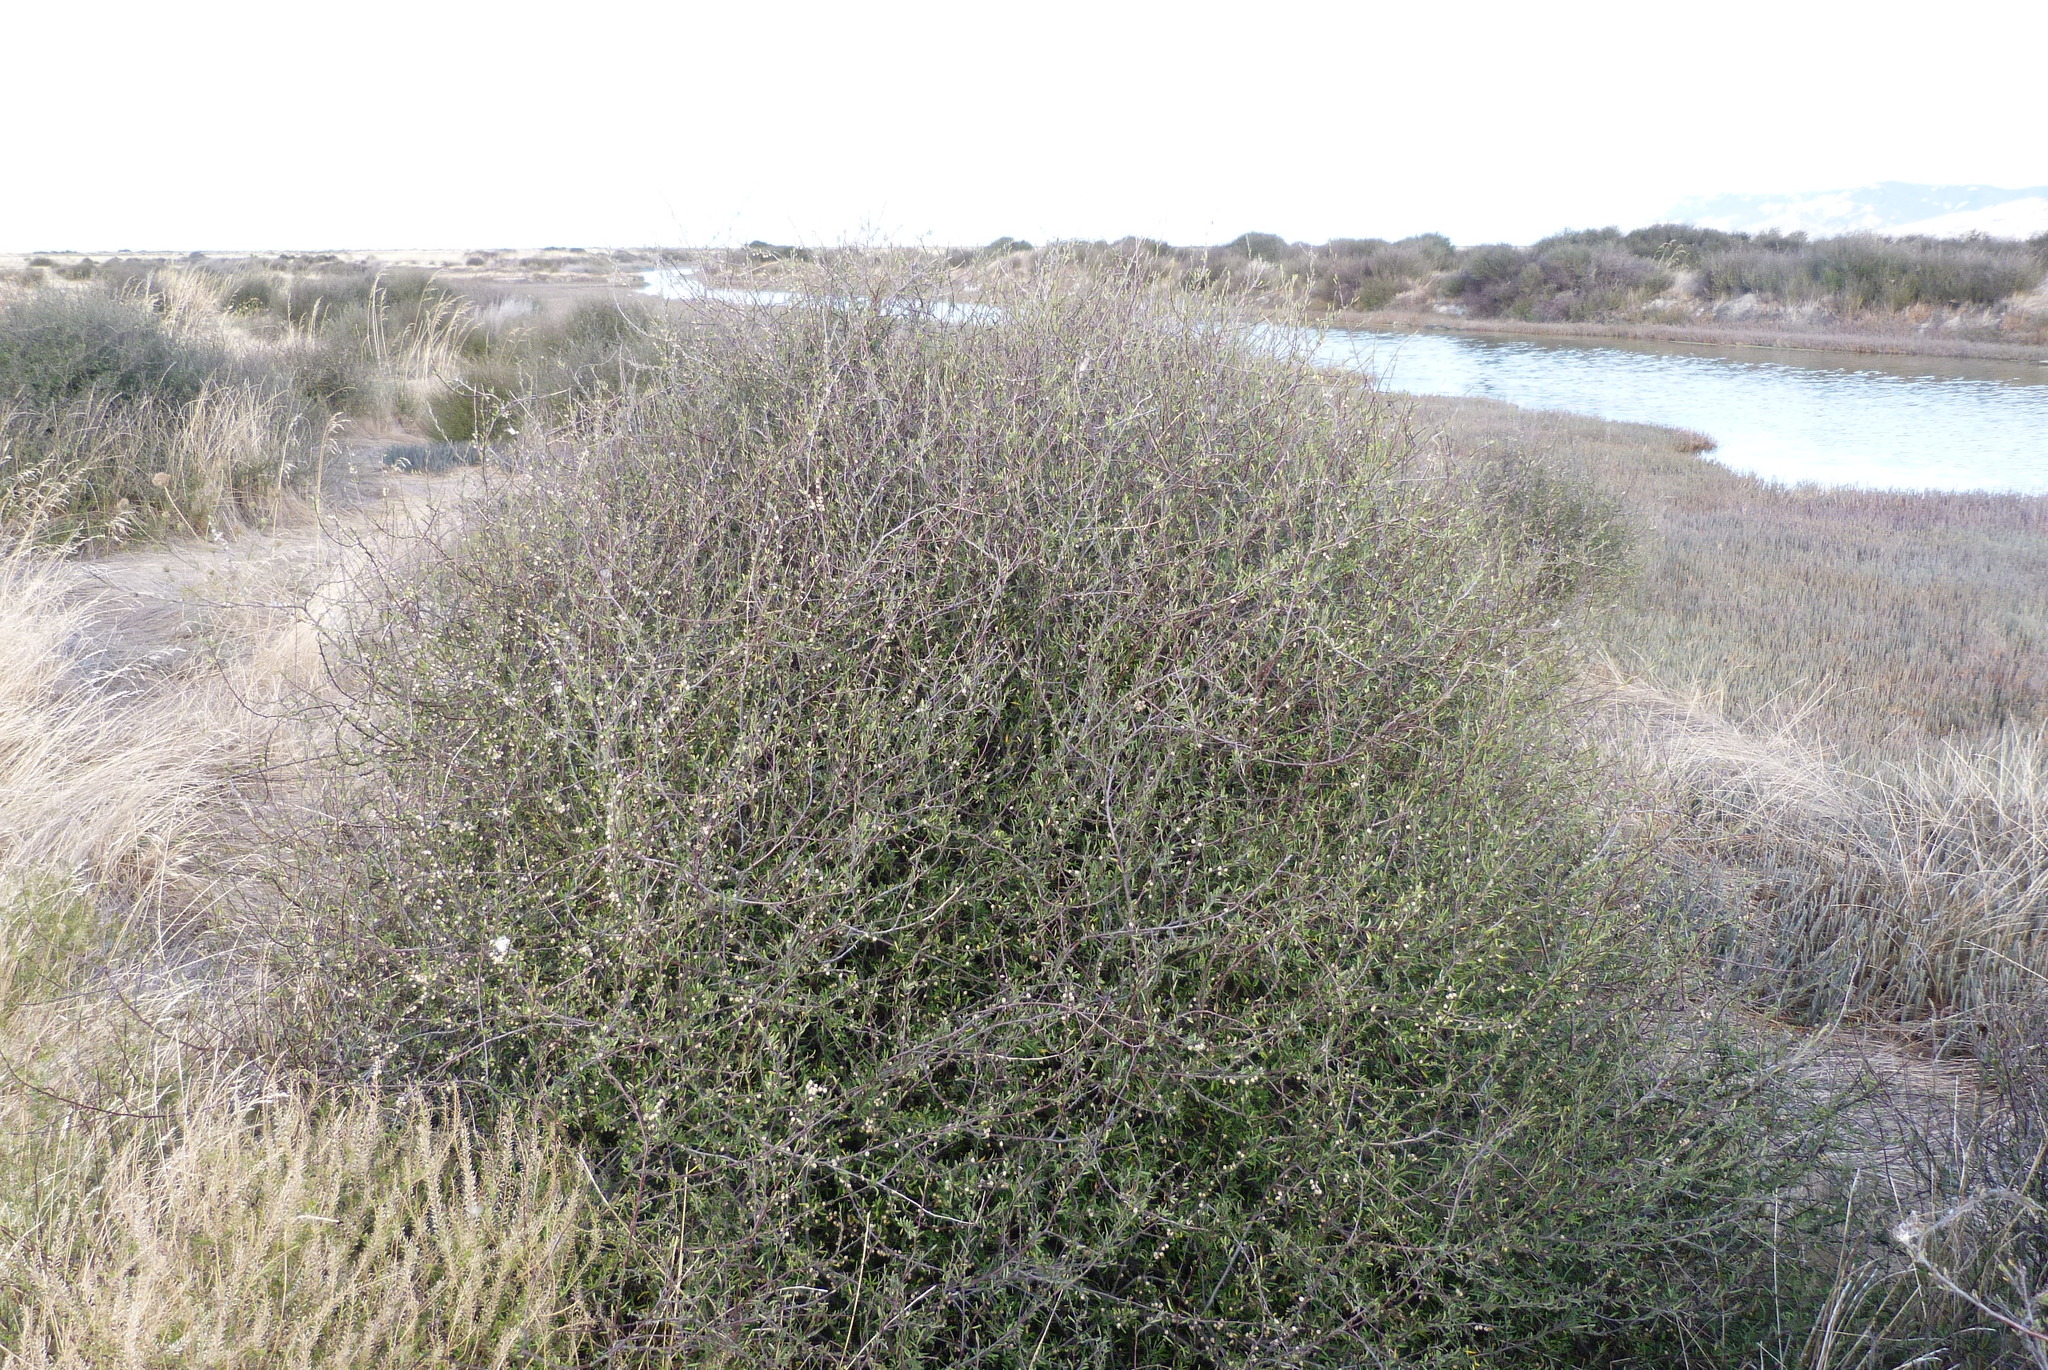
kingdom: Plantae
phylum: Tracheophyta
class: Magnoliopsida
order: Malvales
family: Malvaceae
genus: Plagianthus
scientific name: Plagianthus divaricatus
